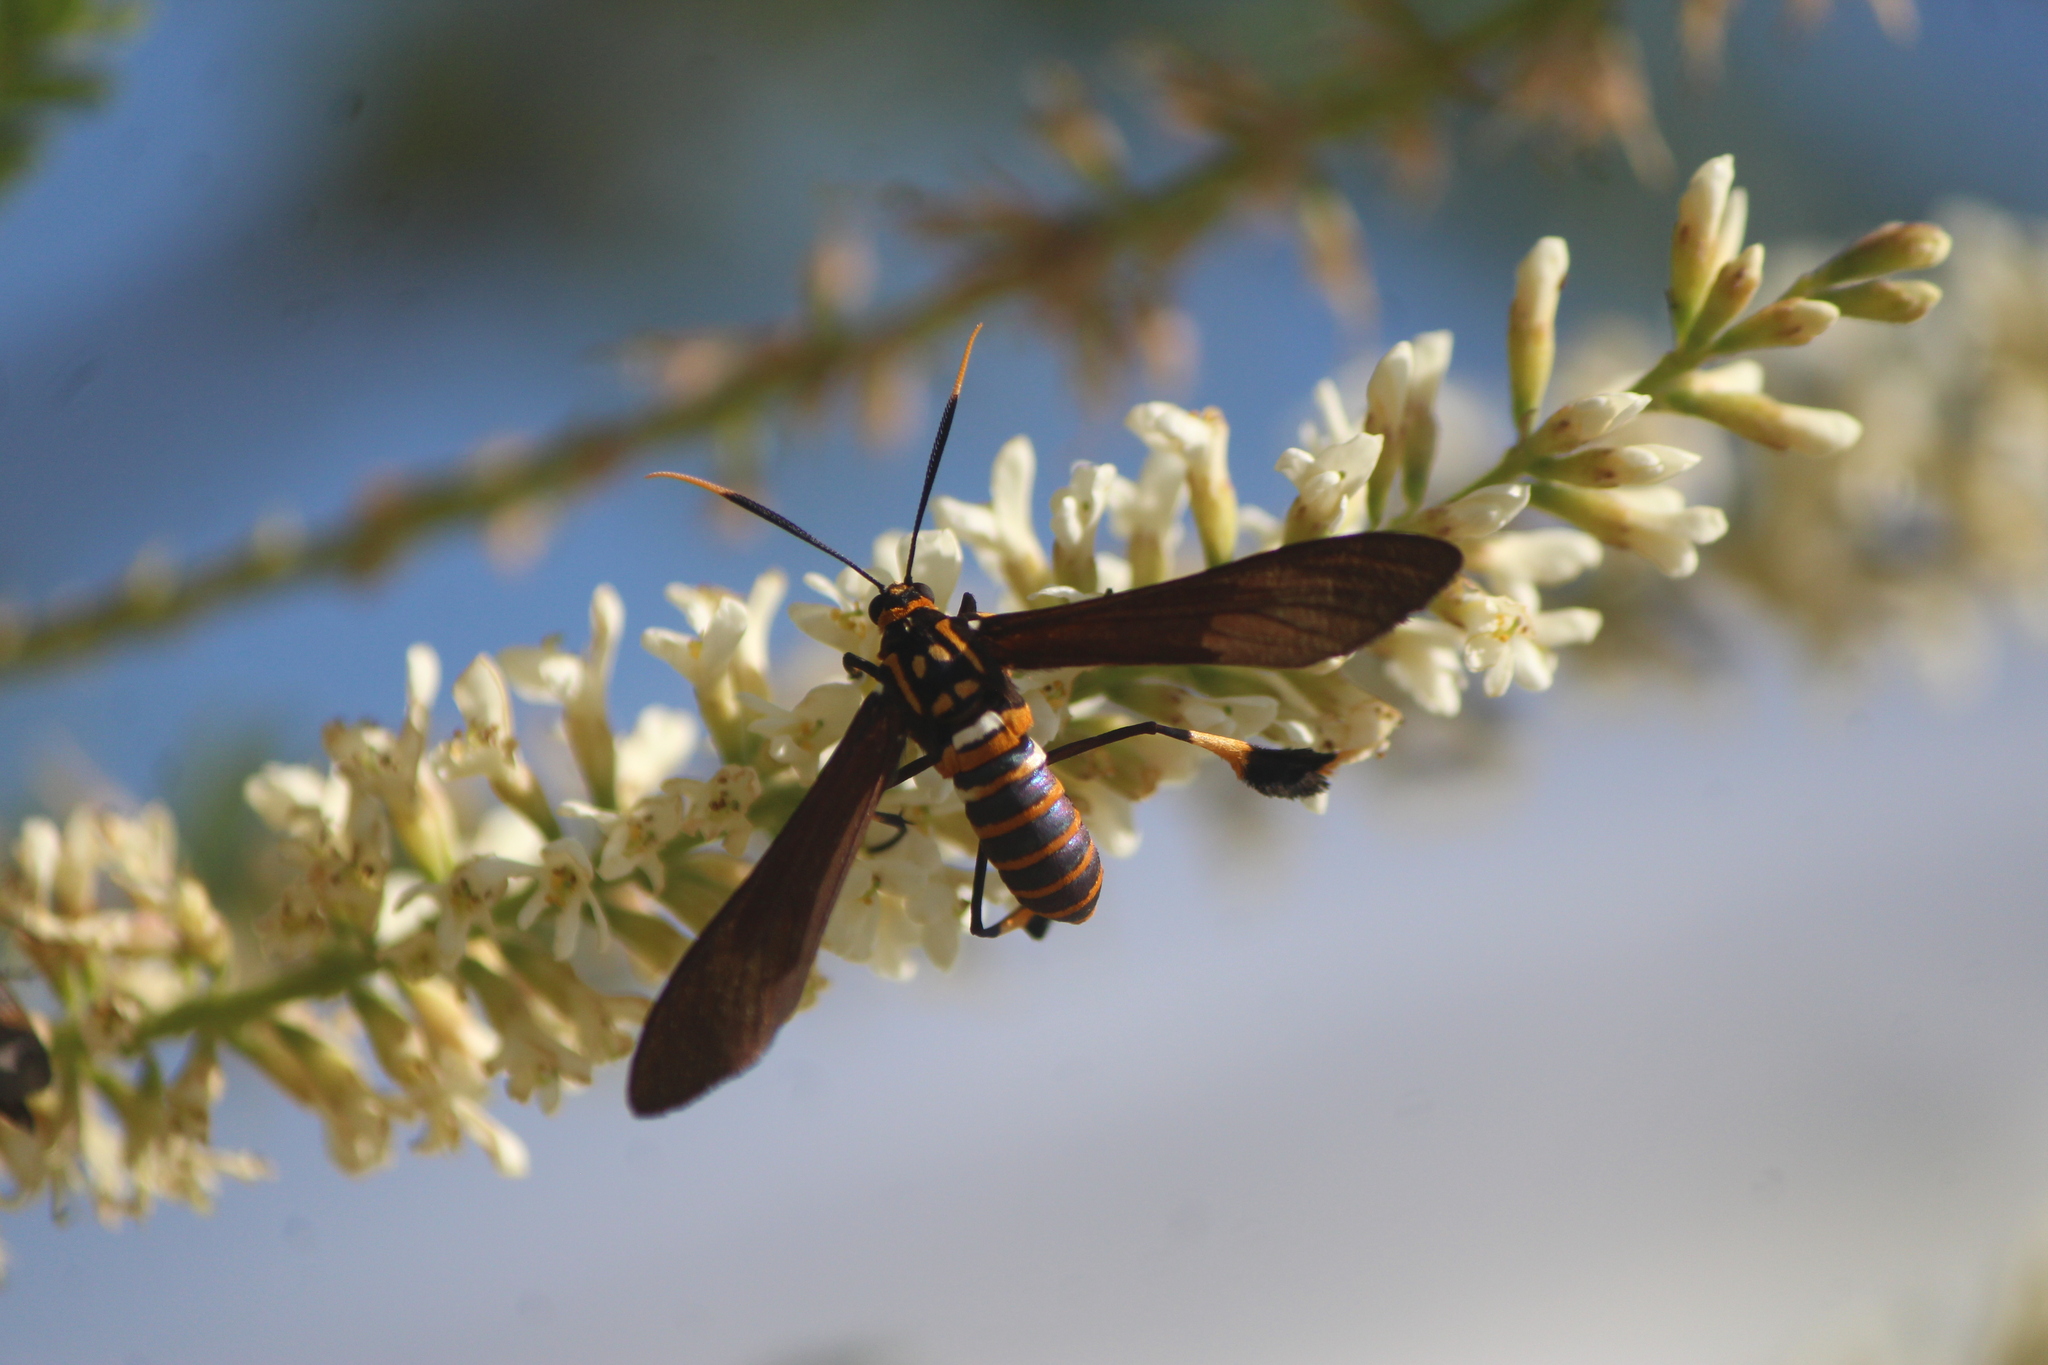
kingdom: Animalia
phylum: Arthropoda
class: Insecta
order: Lepidoptera
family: Erebidae
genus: Horama
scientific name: Horama panthalon
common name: Texas wasp moth
